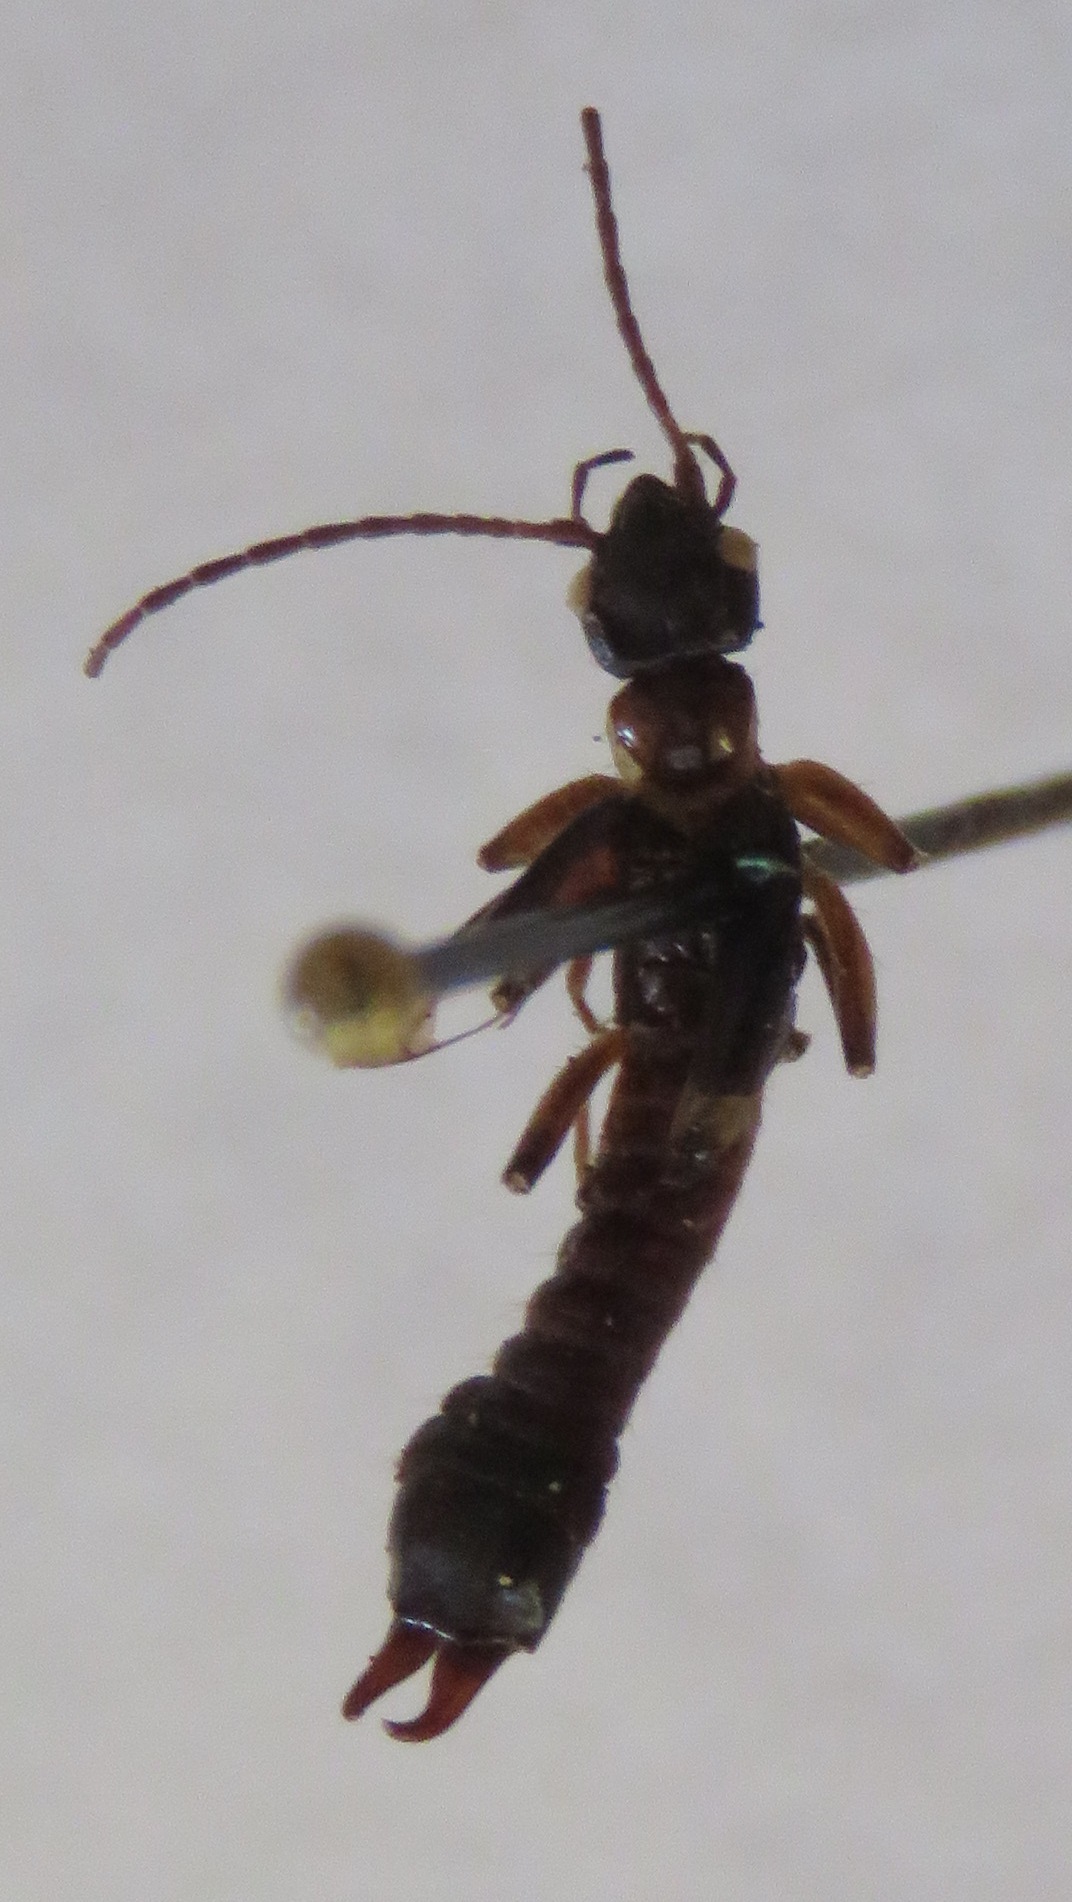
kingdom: Animalia
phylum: Arthropoda
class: Insecta
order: Dermaptera
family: Haplodiplatyidae
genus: Haplodiplatys
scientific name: Haplodiplatys jansoni
